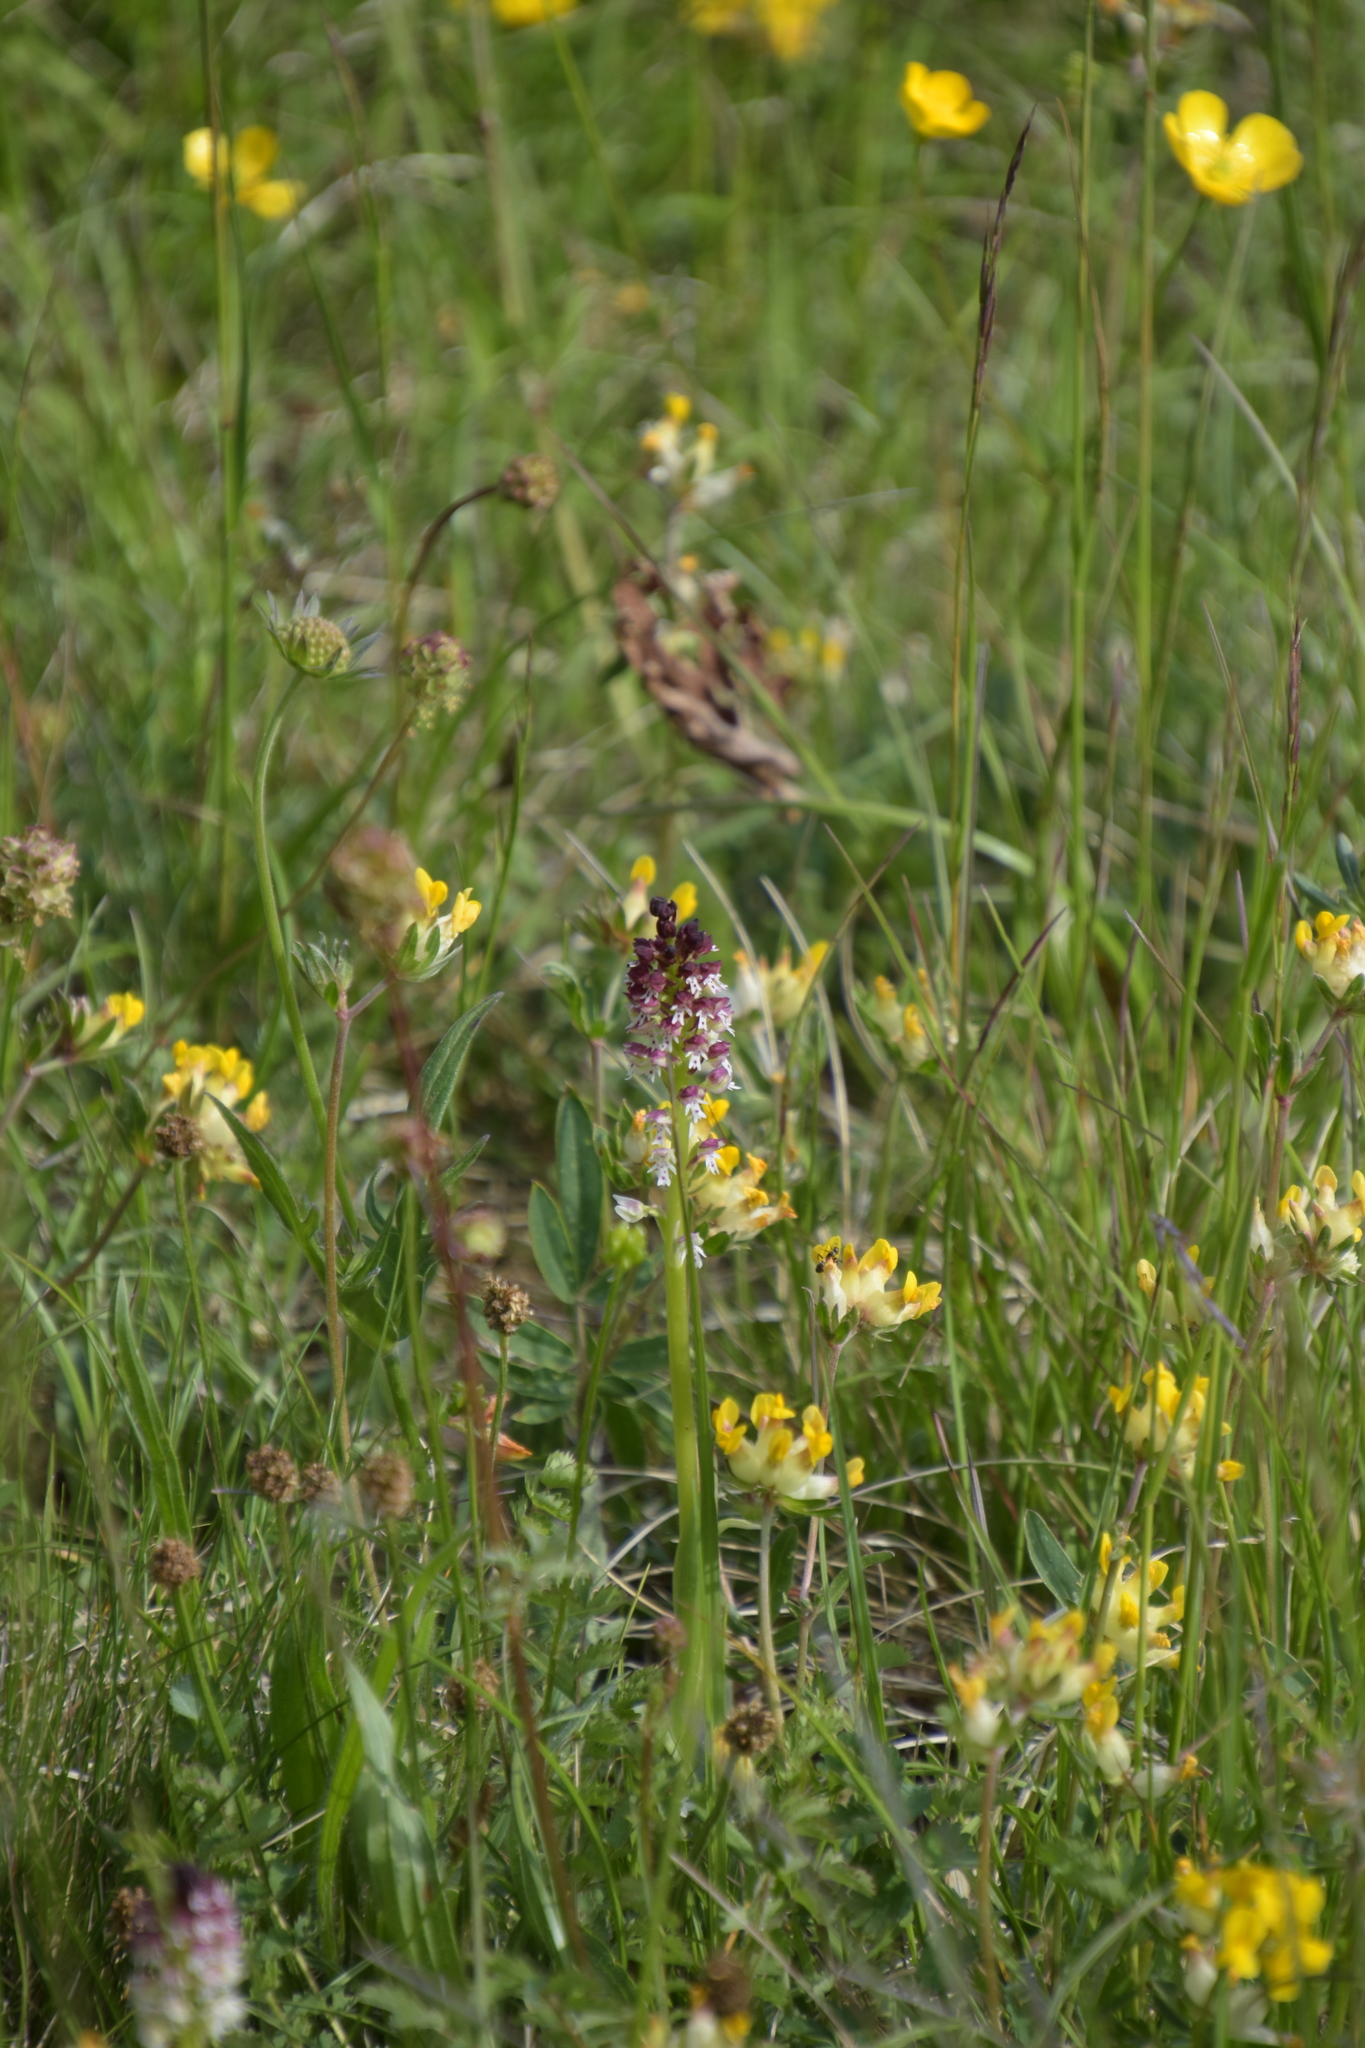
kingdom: Plantae
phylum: Tracheophyta
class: Liliopsida
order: Asparagales
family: Orchidaceae
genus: Neotinea
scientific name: Neotinea ustulata
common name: Burnt orchid
